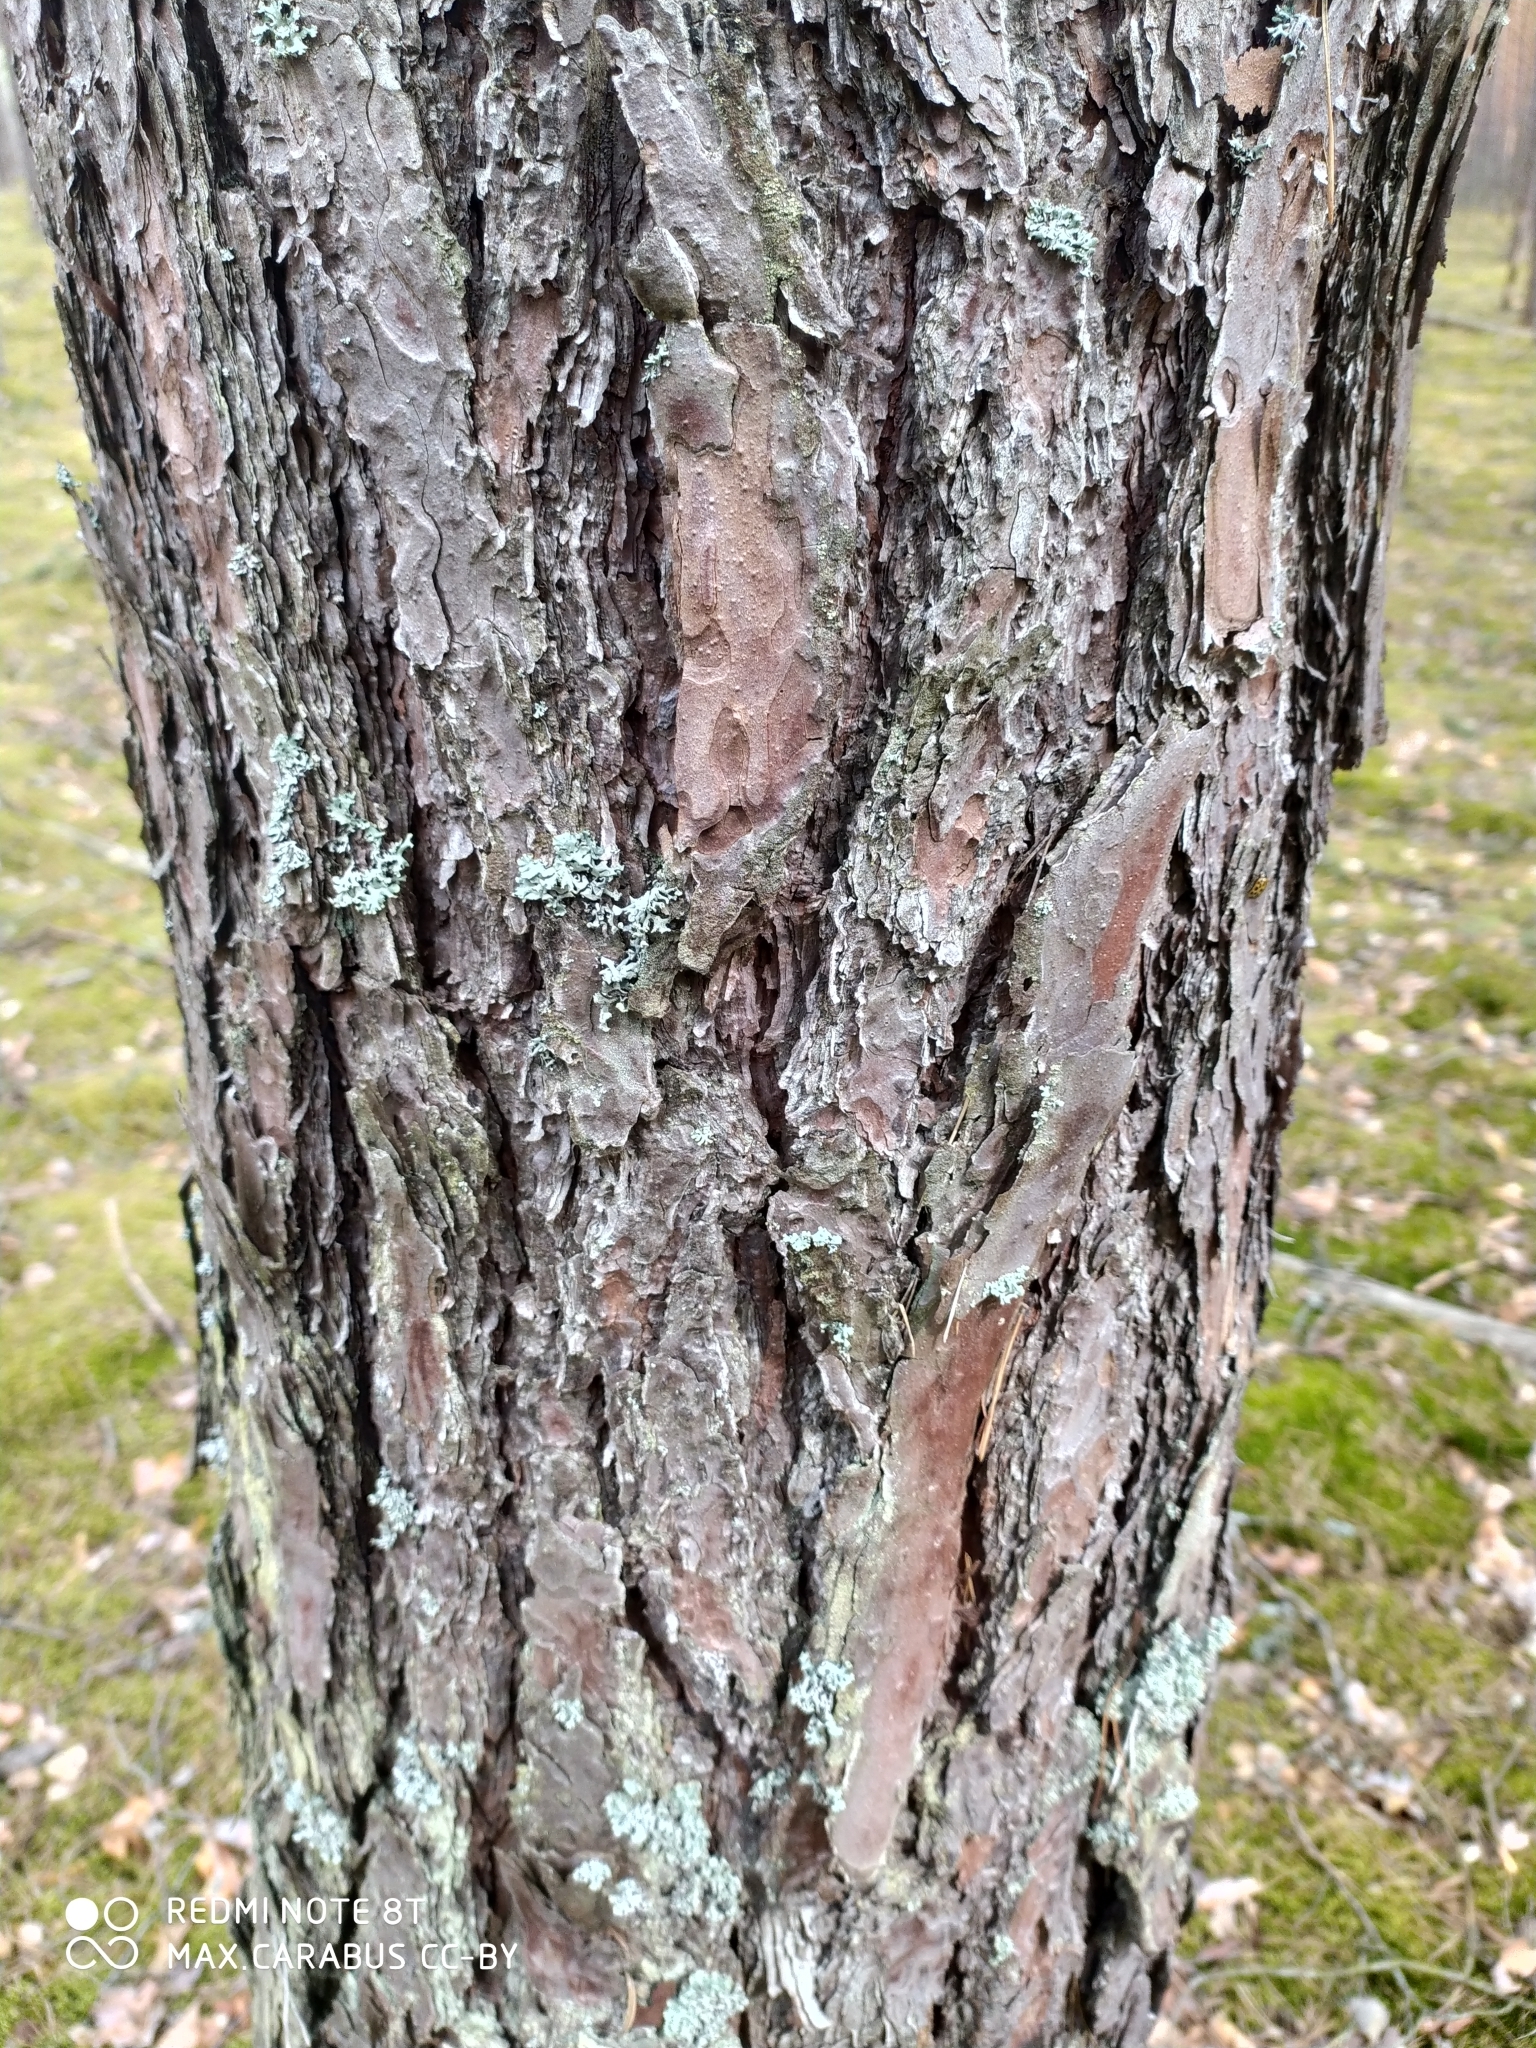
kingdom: Plantae
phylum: Tracheophyta
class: Pinopsida
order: Pinales
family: Pinaceae
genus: Pinus
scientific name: Pinus sylvestris
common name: Scots pine
